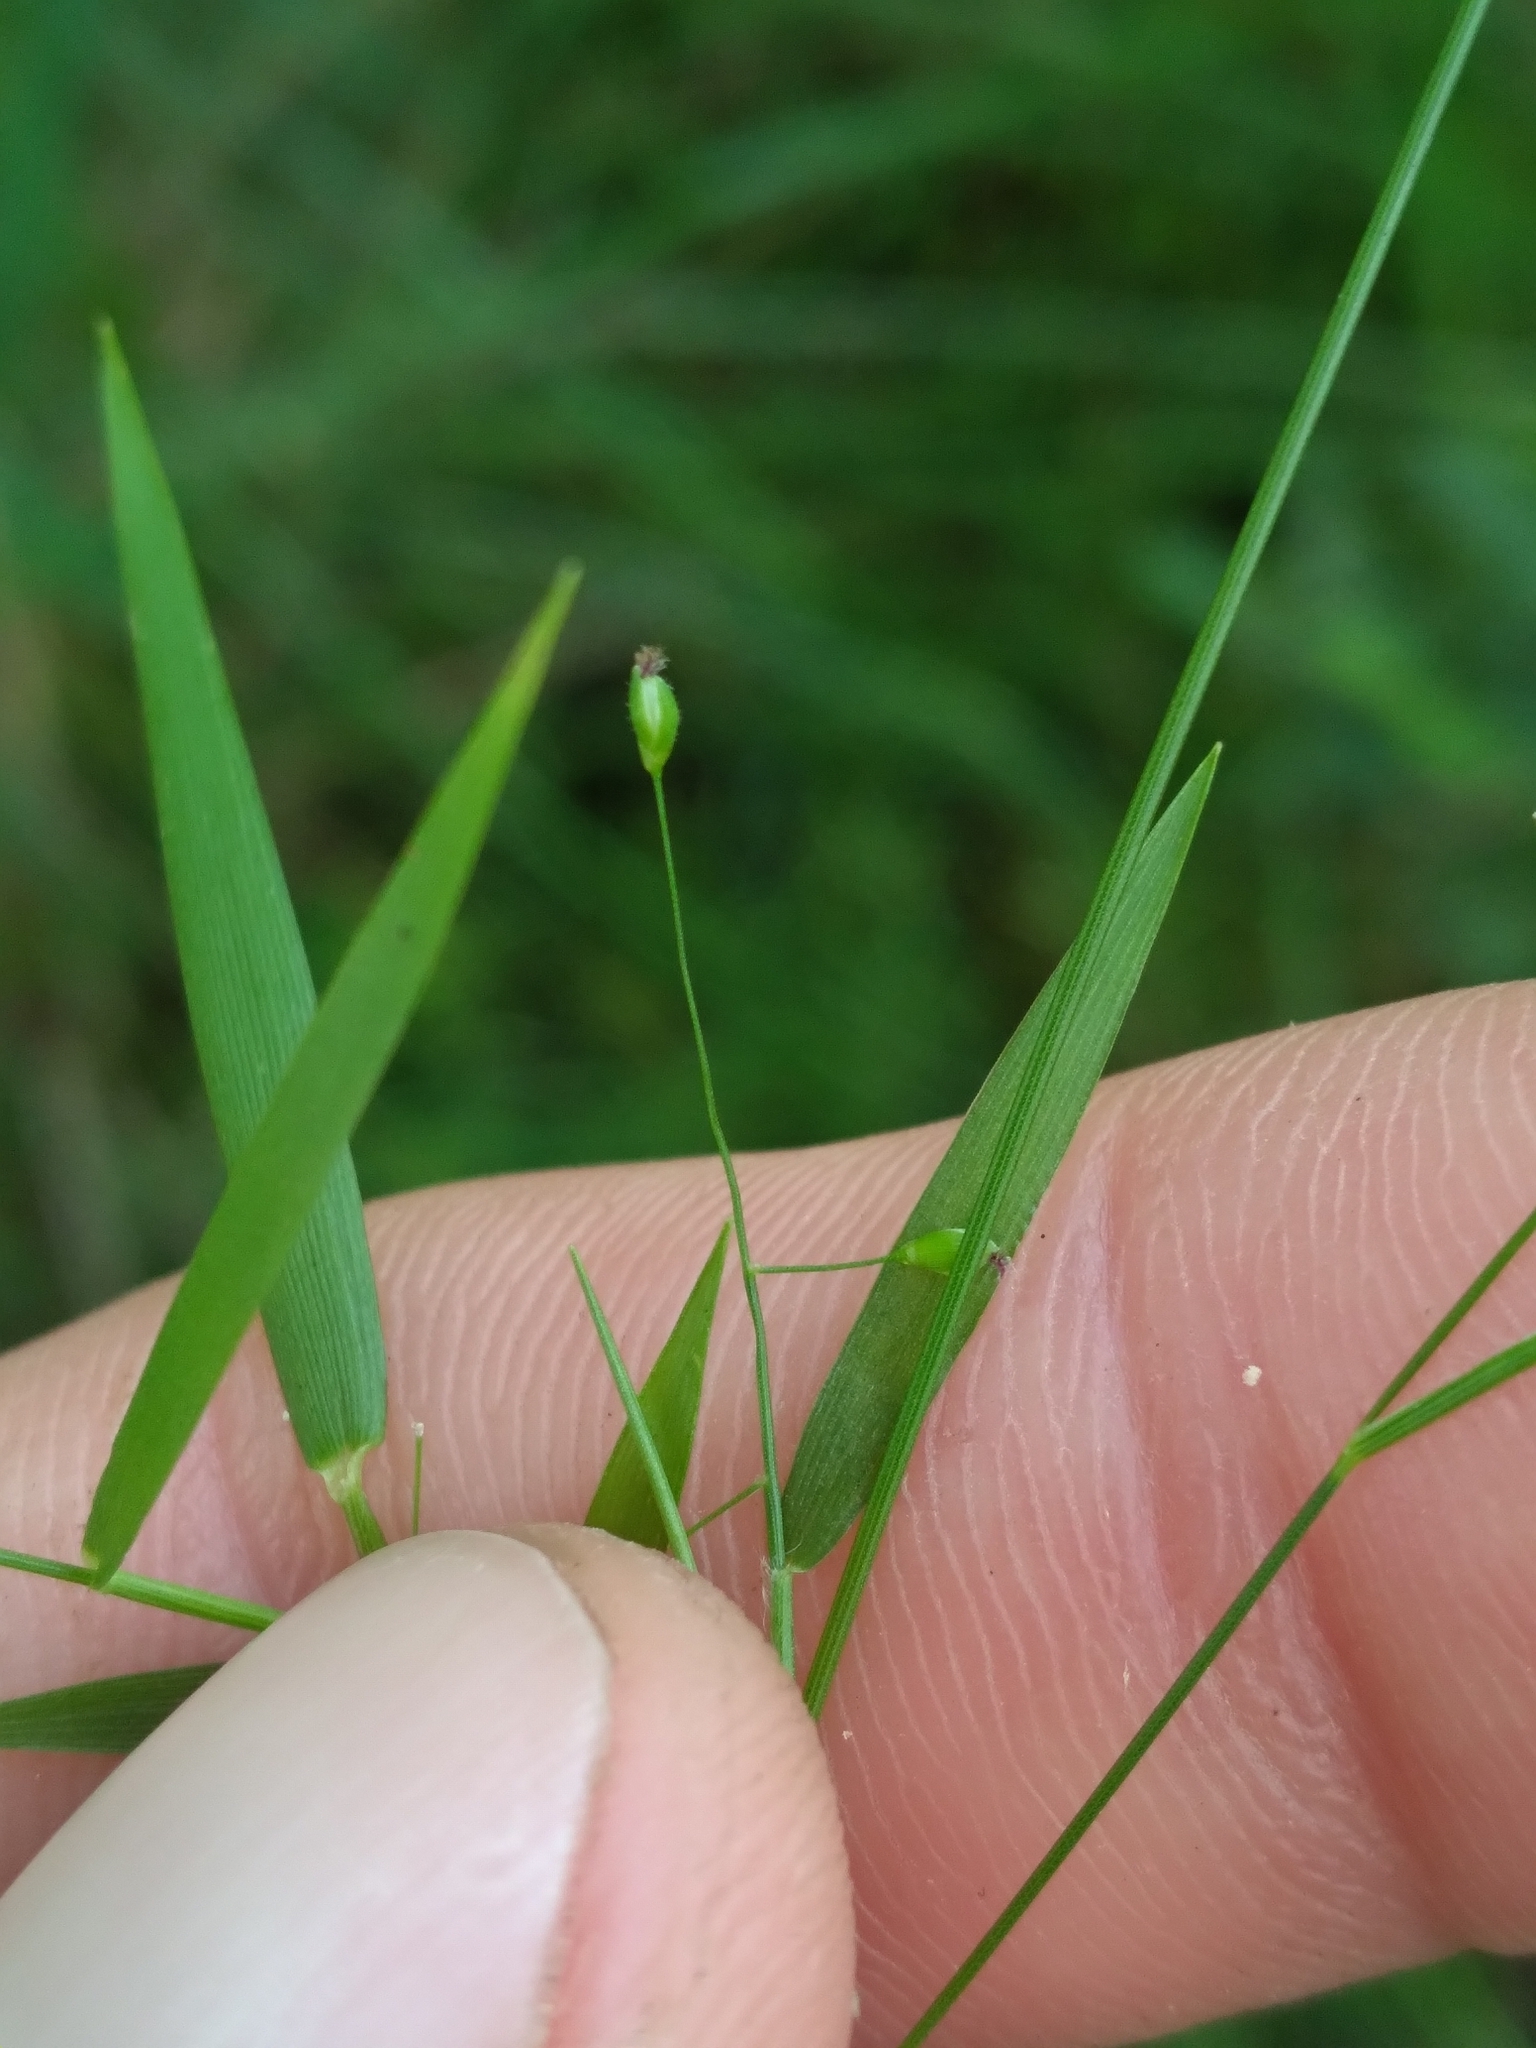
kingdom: Plantae
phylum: Tracheophyta
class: Liliopsida
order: Poales
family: Poaceae
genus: Dichanthelium
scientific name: Dichanthelium lucidum
